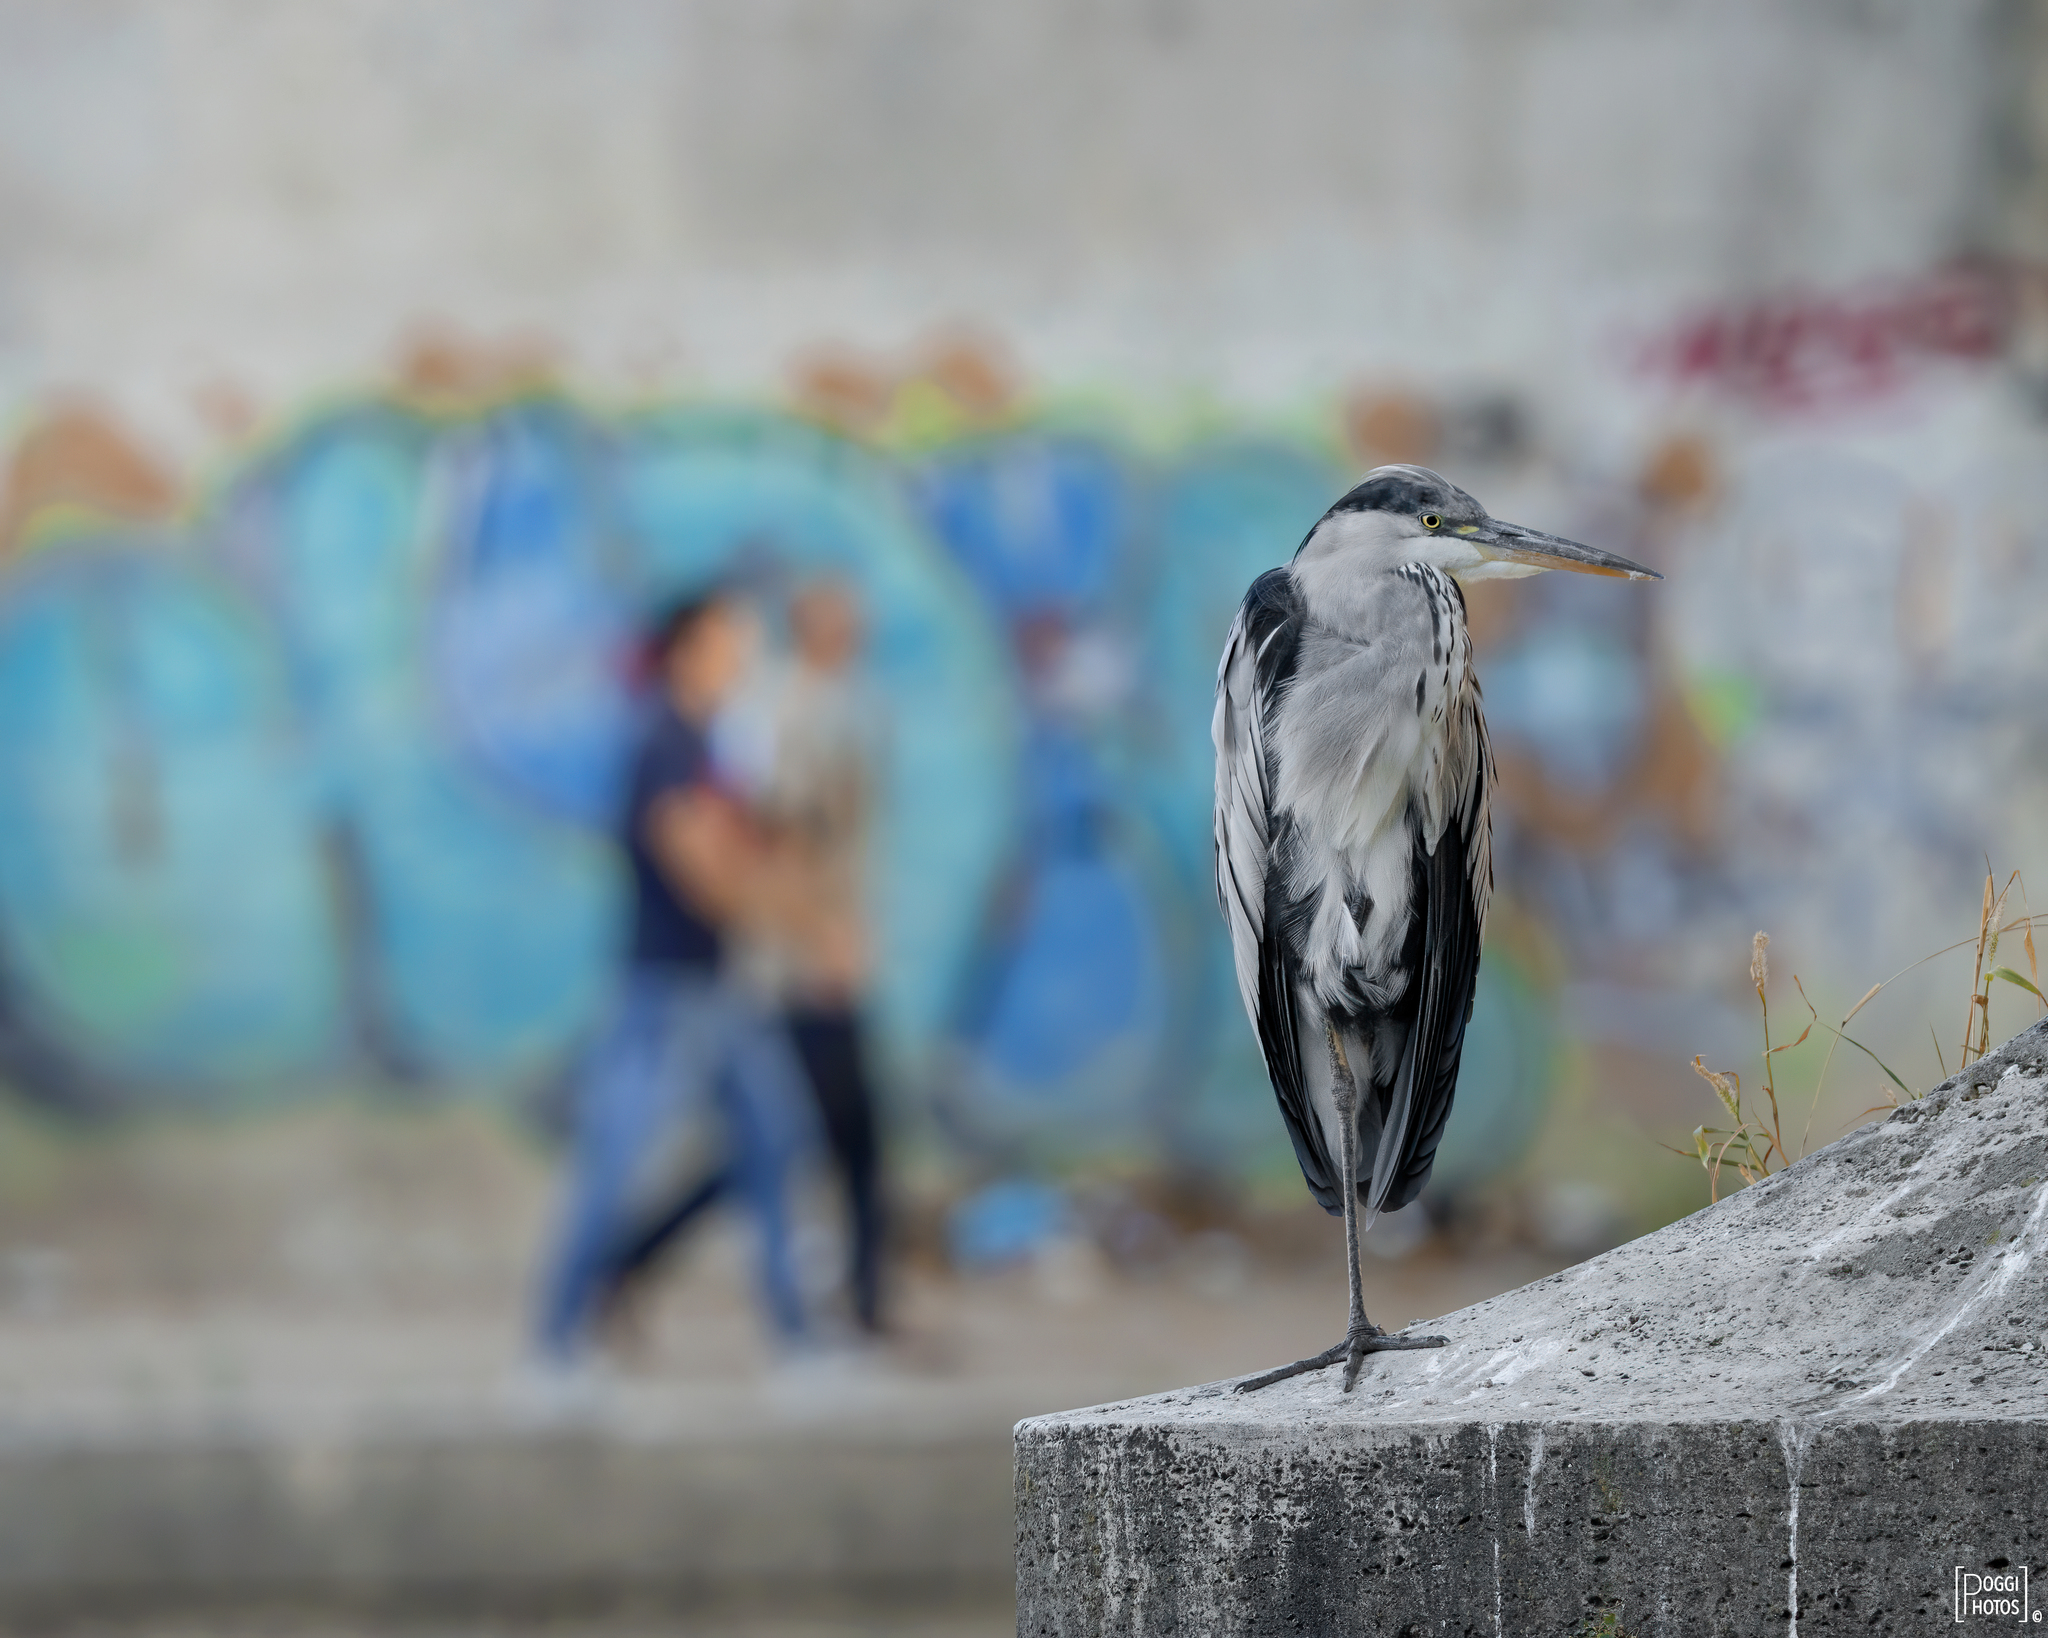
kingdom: Animalia
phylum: Chordata
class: Aves
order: Pelecaniformes
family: Ardeidae
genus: Ardea
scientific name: Ardea cinerea
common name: Grey heron
